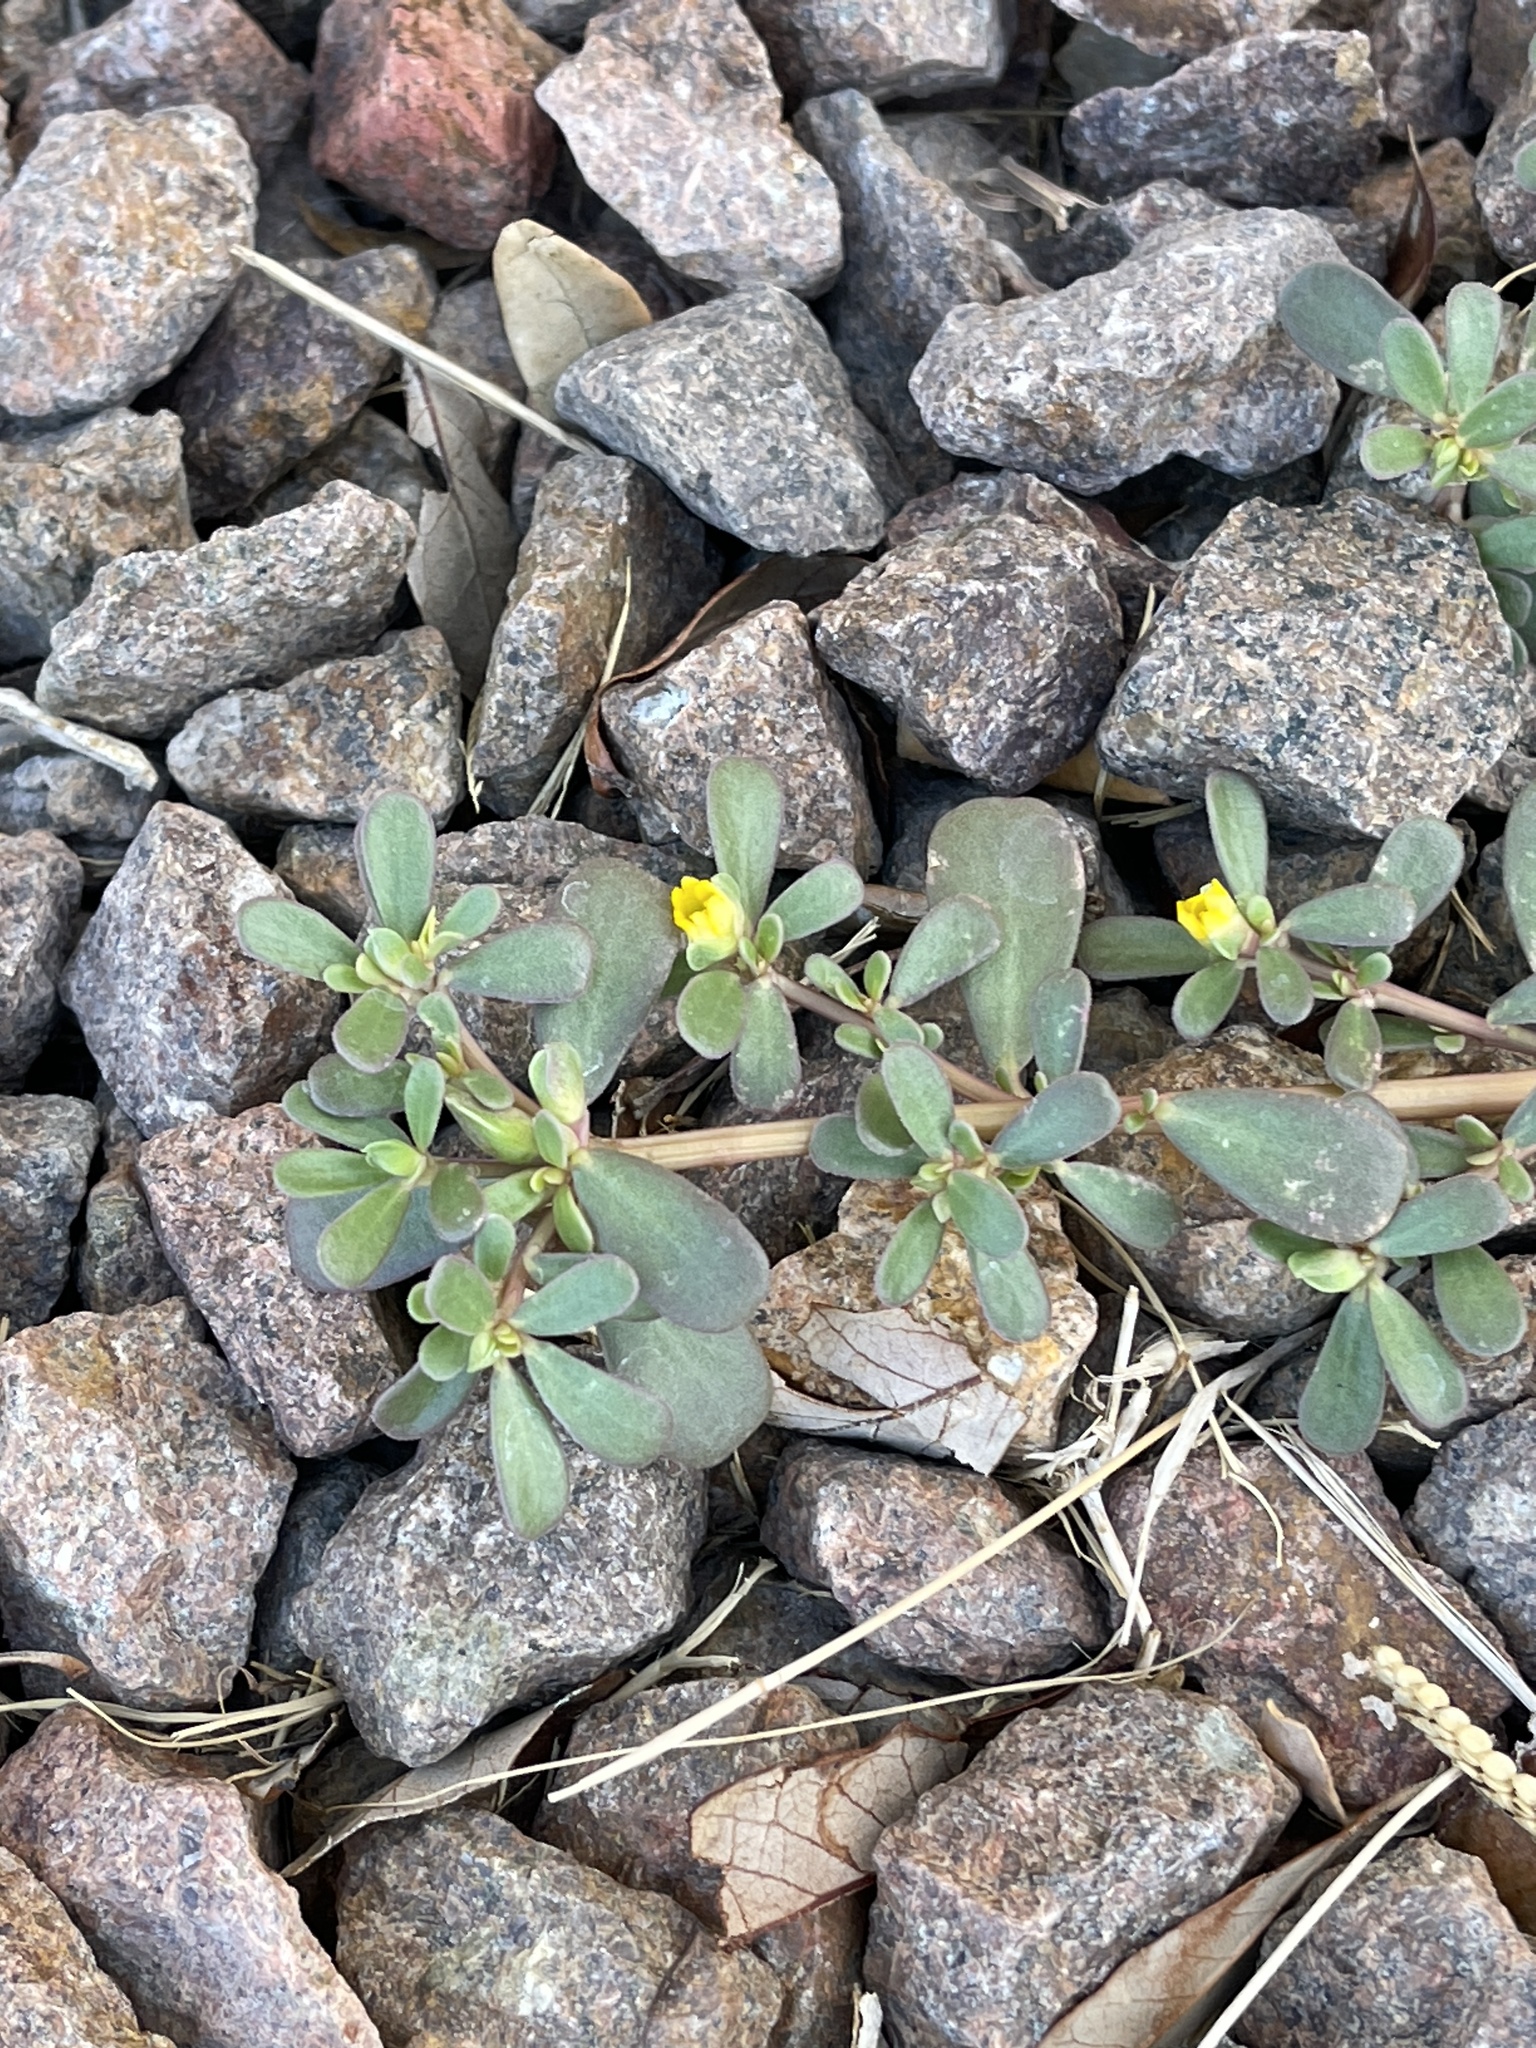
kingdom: Plantae
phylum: Tracheophyta
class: Magnoliopsida
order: Caryophyllales
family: Portulacaceae
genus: Portulaca
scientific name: Portulaca oleracea
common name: Common purslane
